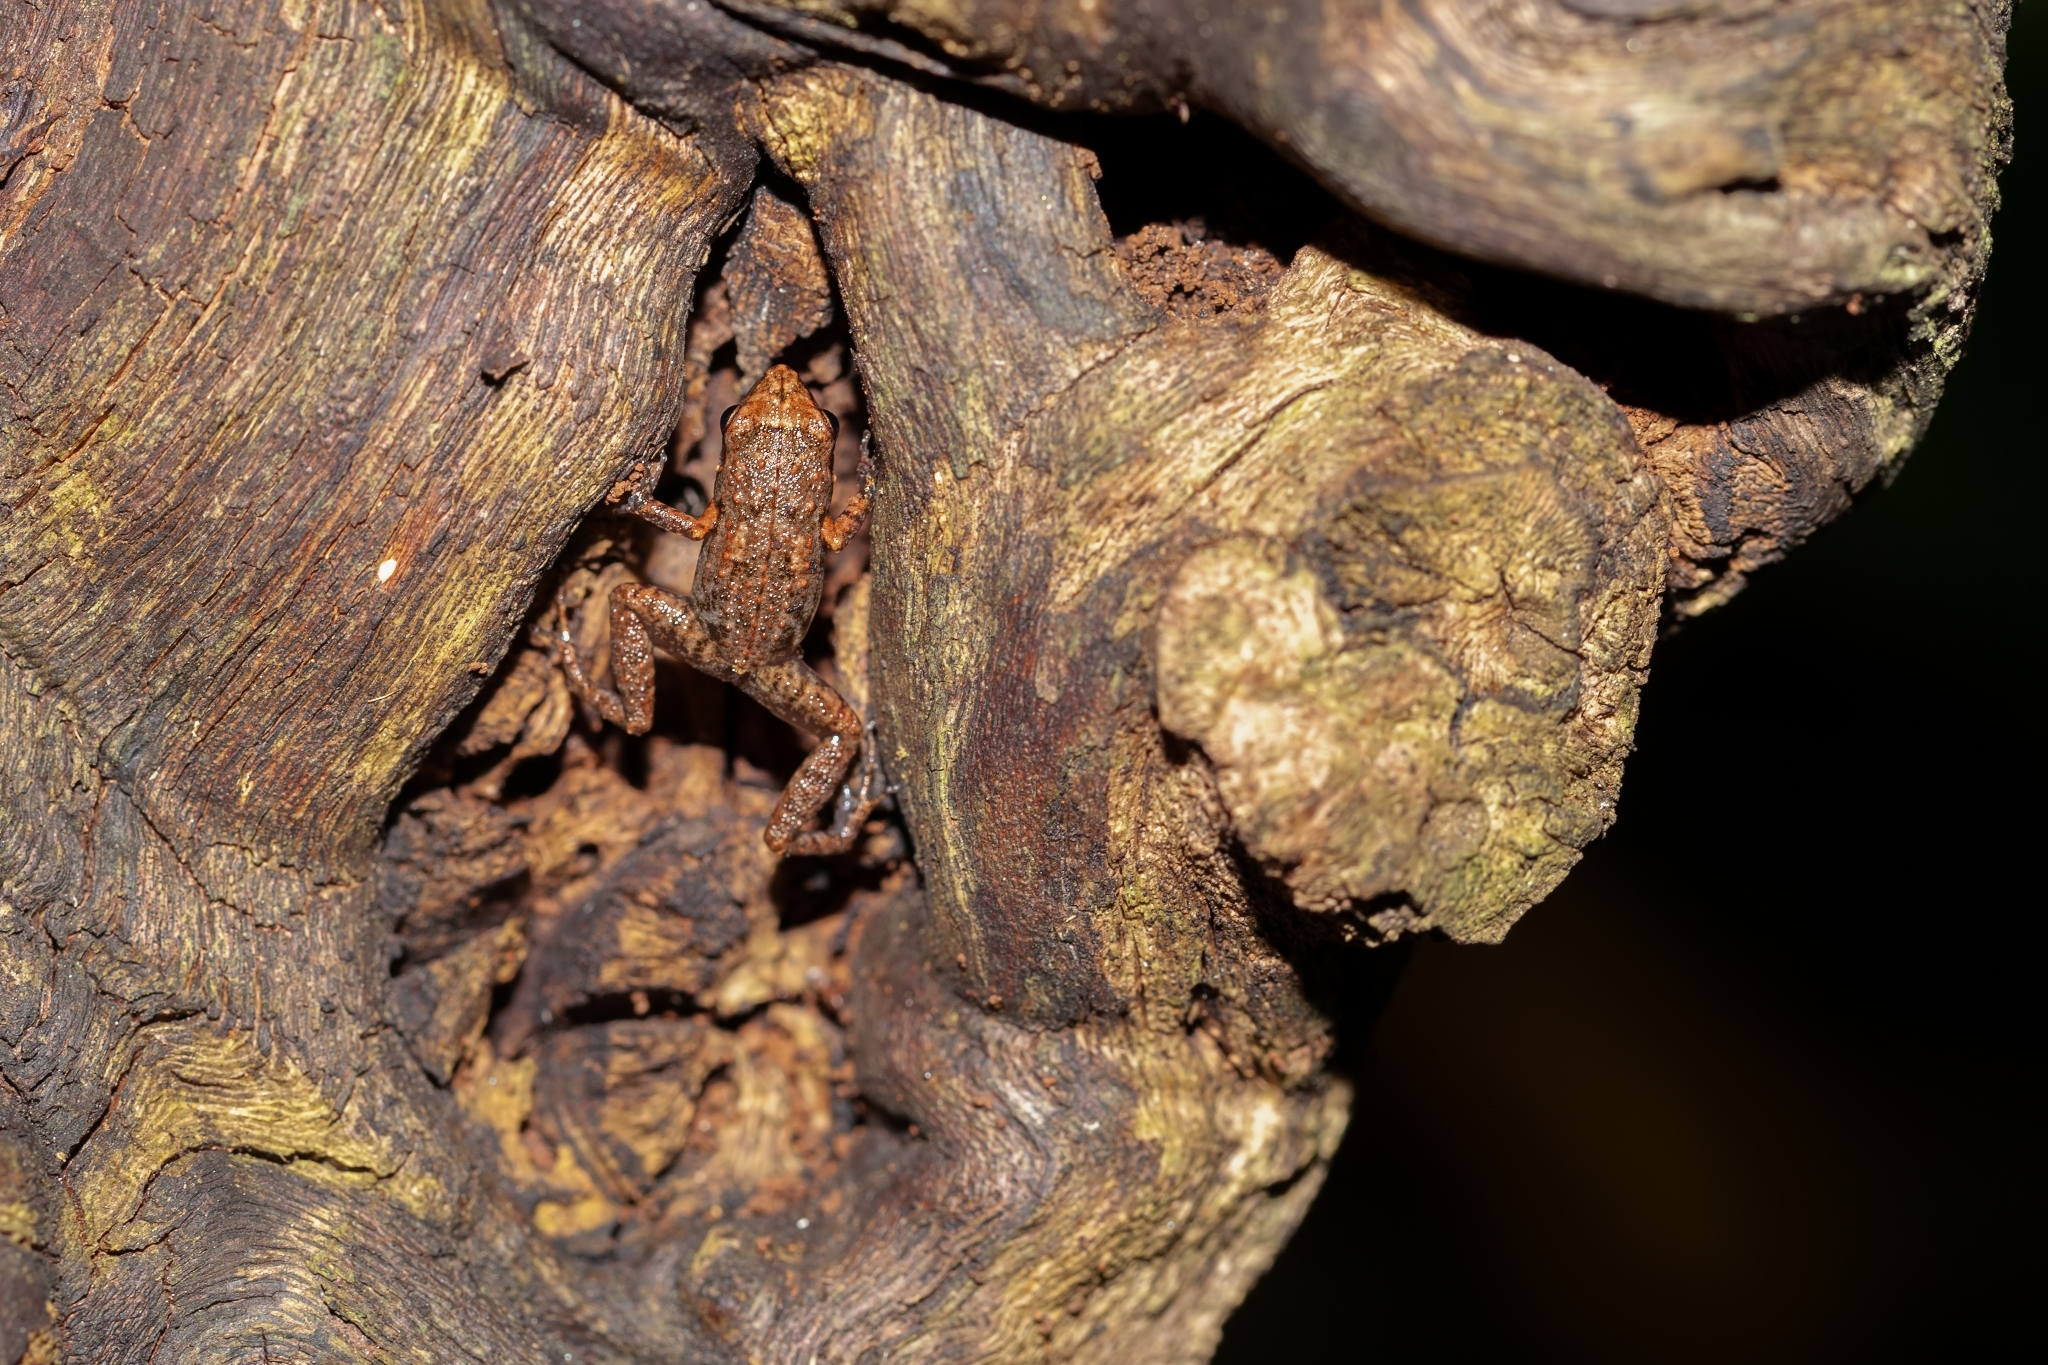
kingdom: Animalia
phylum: Chordata
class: Amphibia
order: Anura
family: Eleutherodactylidae
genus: Eleutherodactylus
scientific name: Eleutherodactylus planirostris
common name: Greenhouse frog
